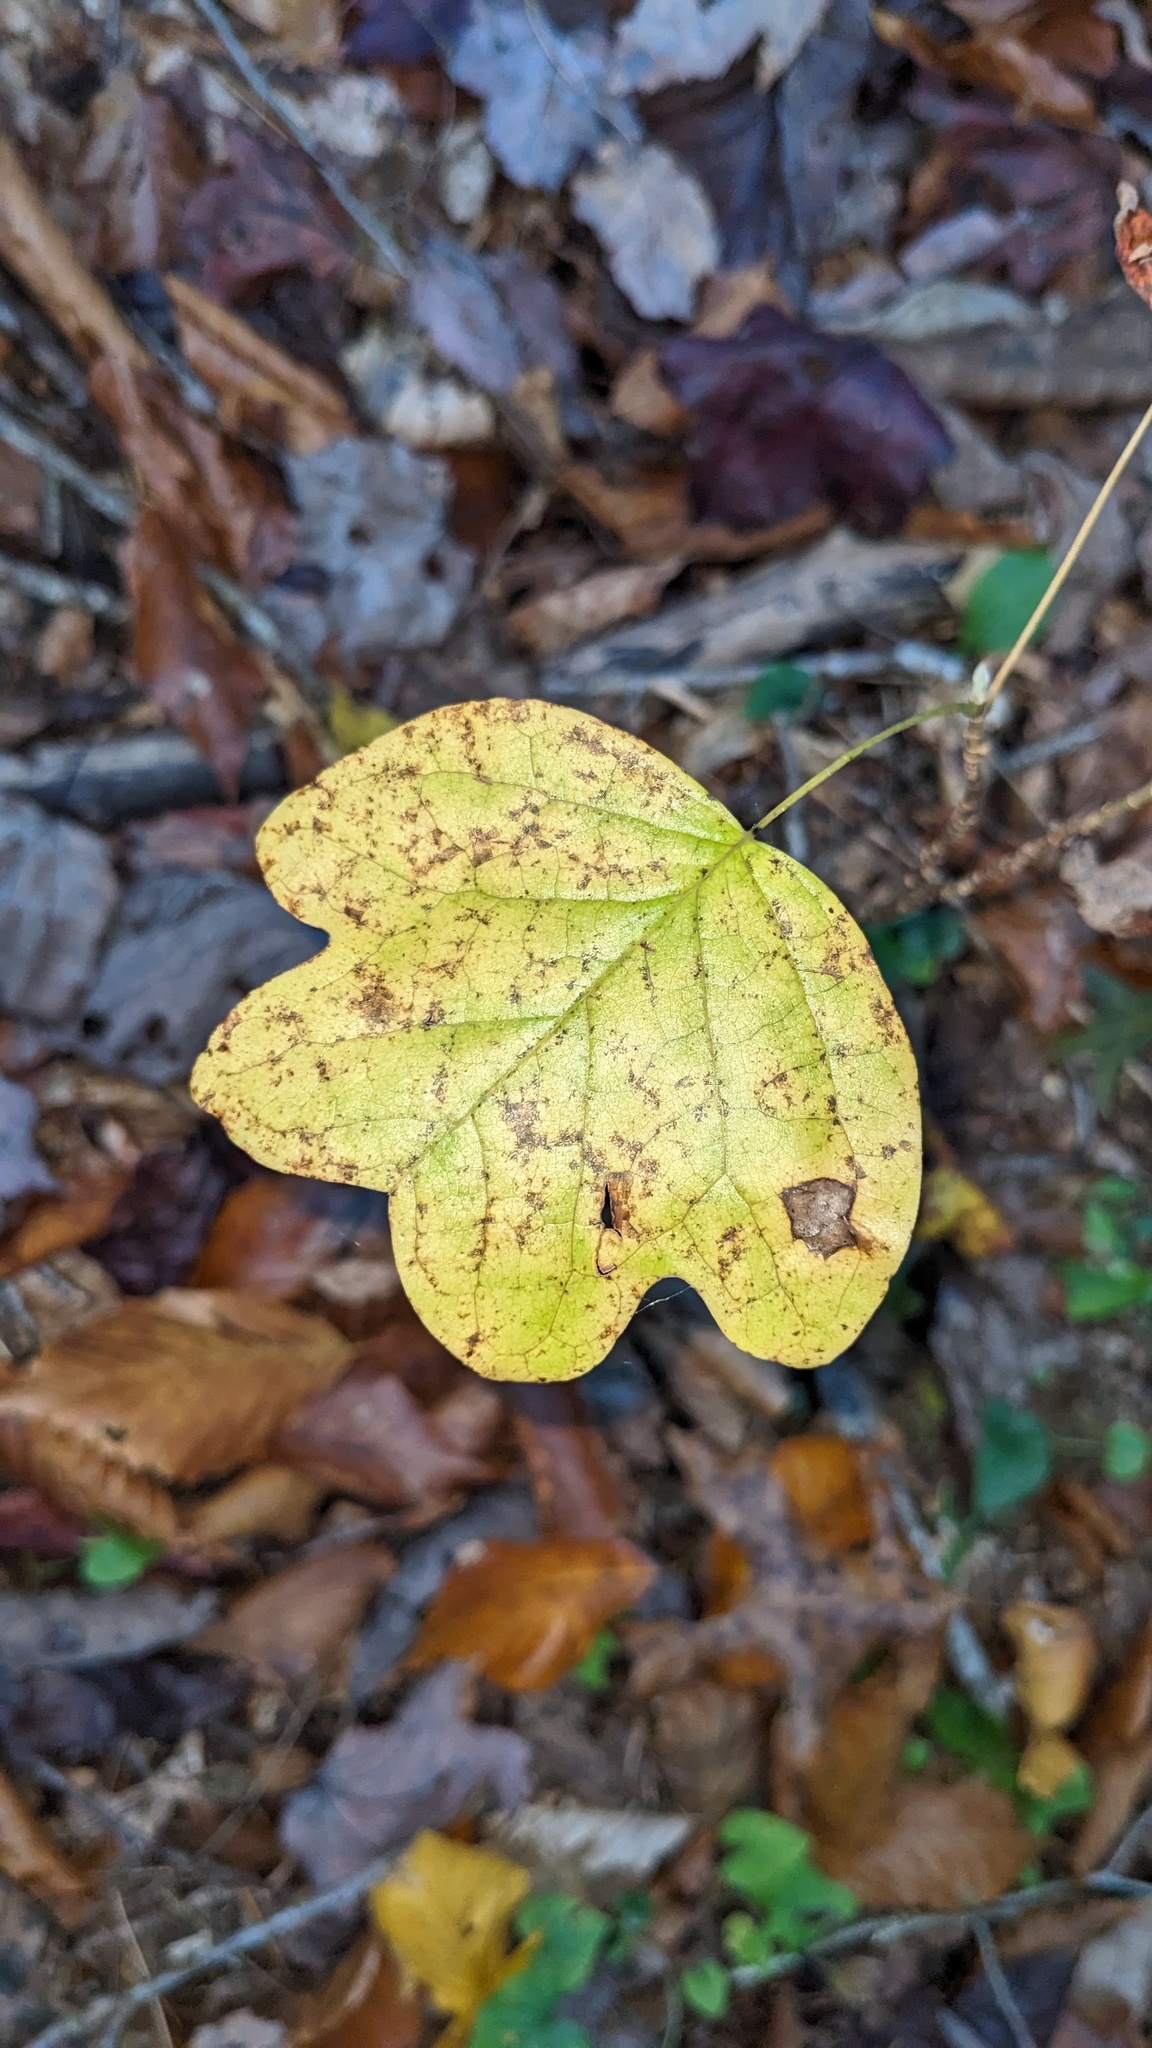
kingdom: Plantae
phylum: Tracheophyta
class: Magnoliopsida
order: Magnoliales
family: Magnoliaceae
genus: Liriodendron
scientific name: Liriodendron tulipifera
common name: Tulip tree
